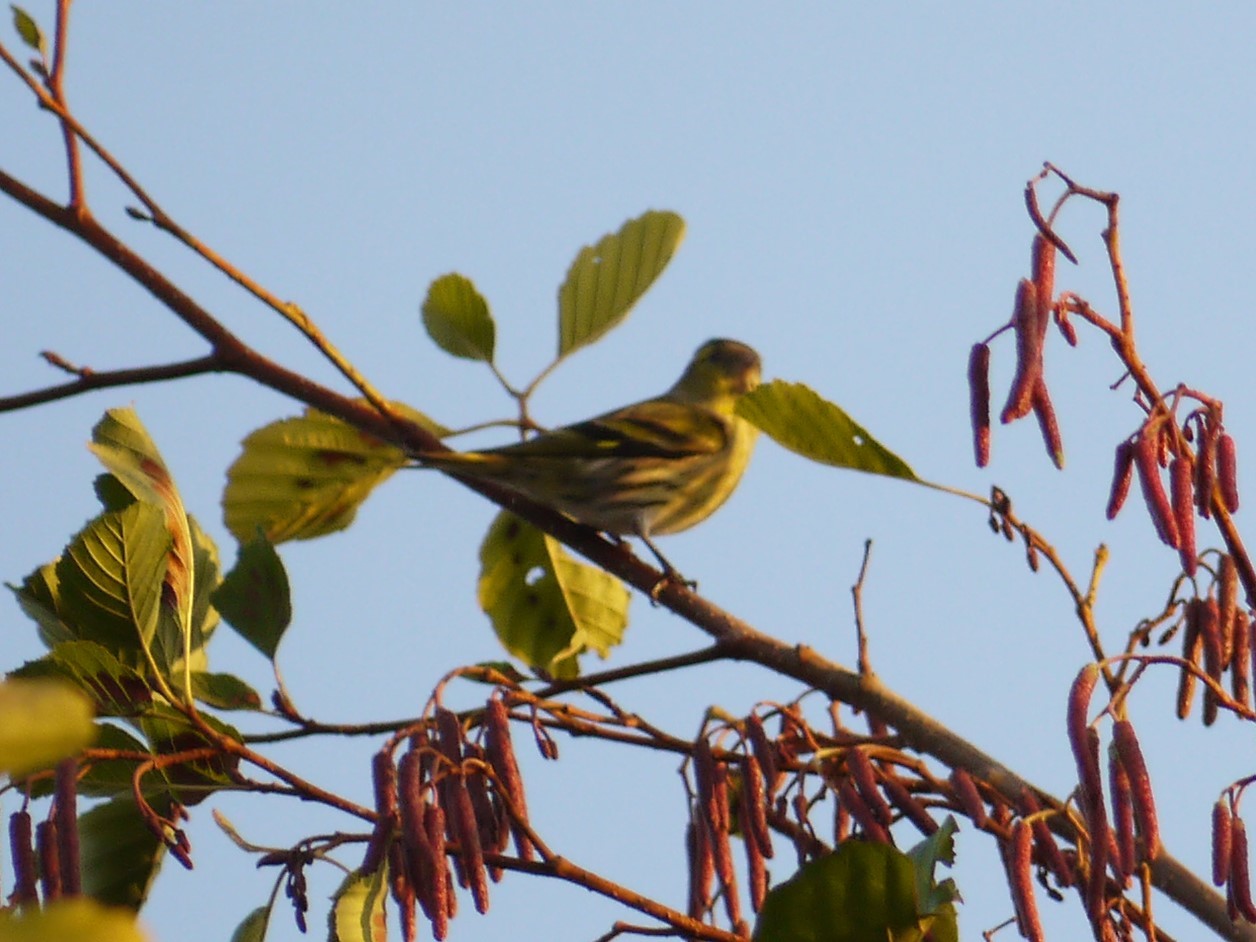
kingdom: Animalia
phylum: Chordata
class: Aves
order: Passeriformes
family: Fringillidae
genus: Spinus
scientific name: Spinus spinus
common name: Eurasian siskin
